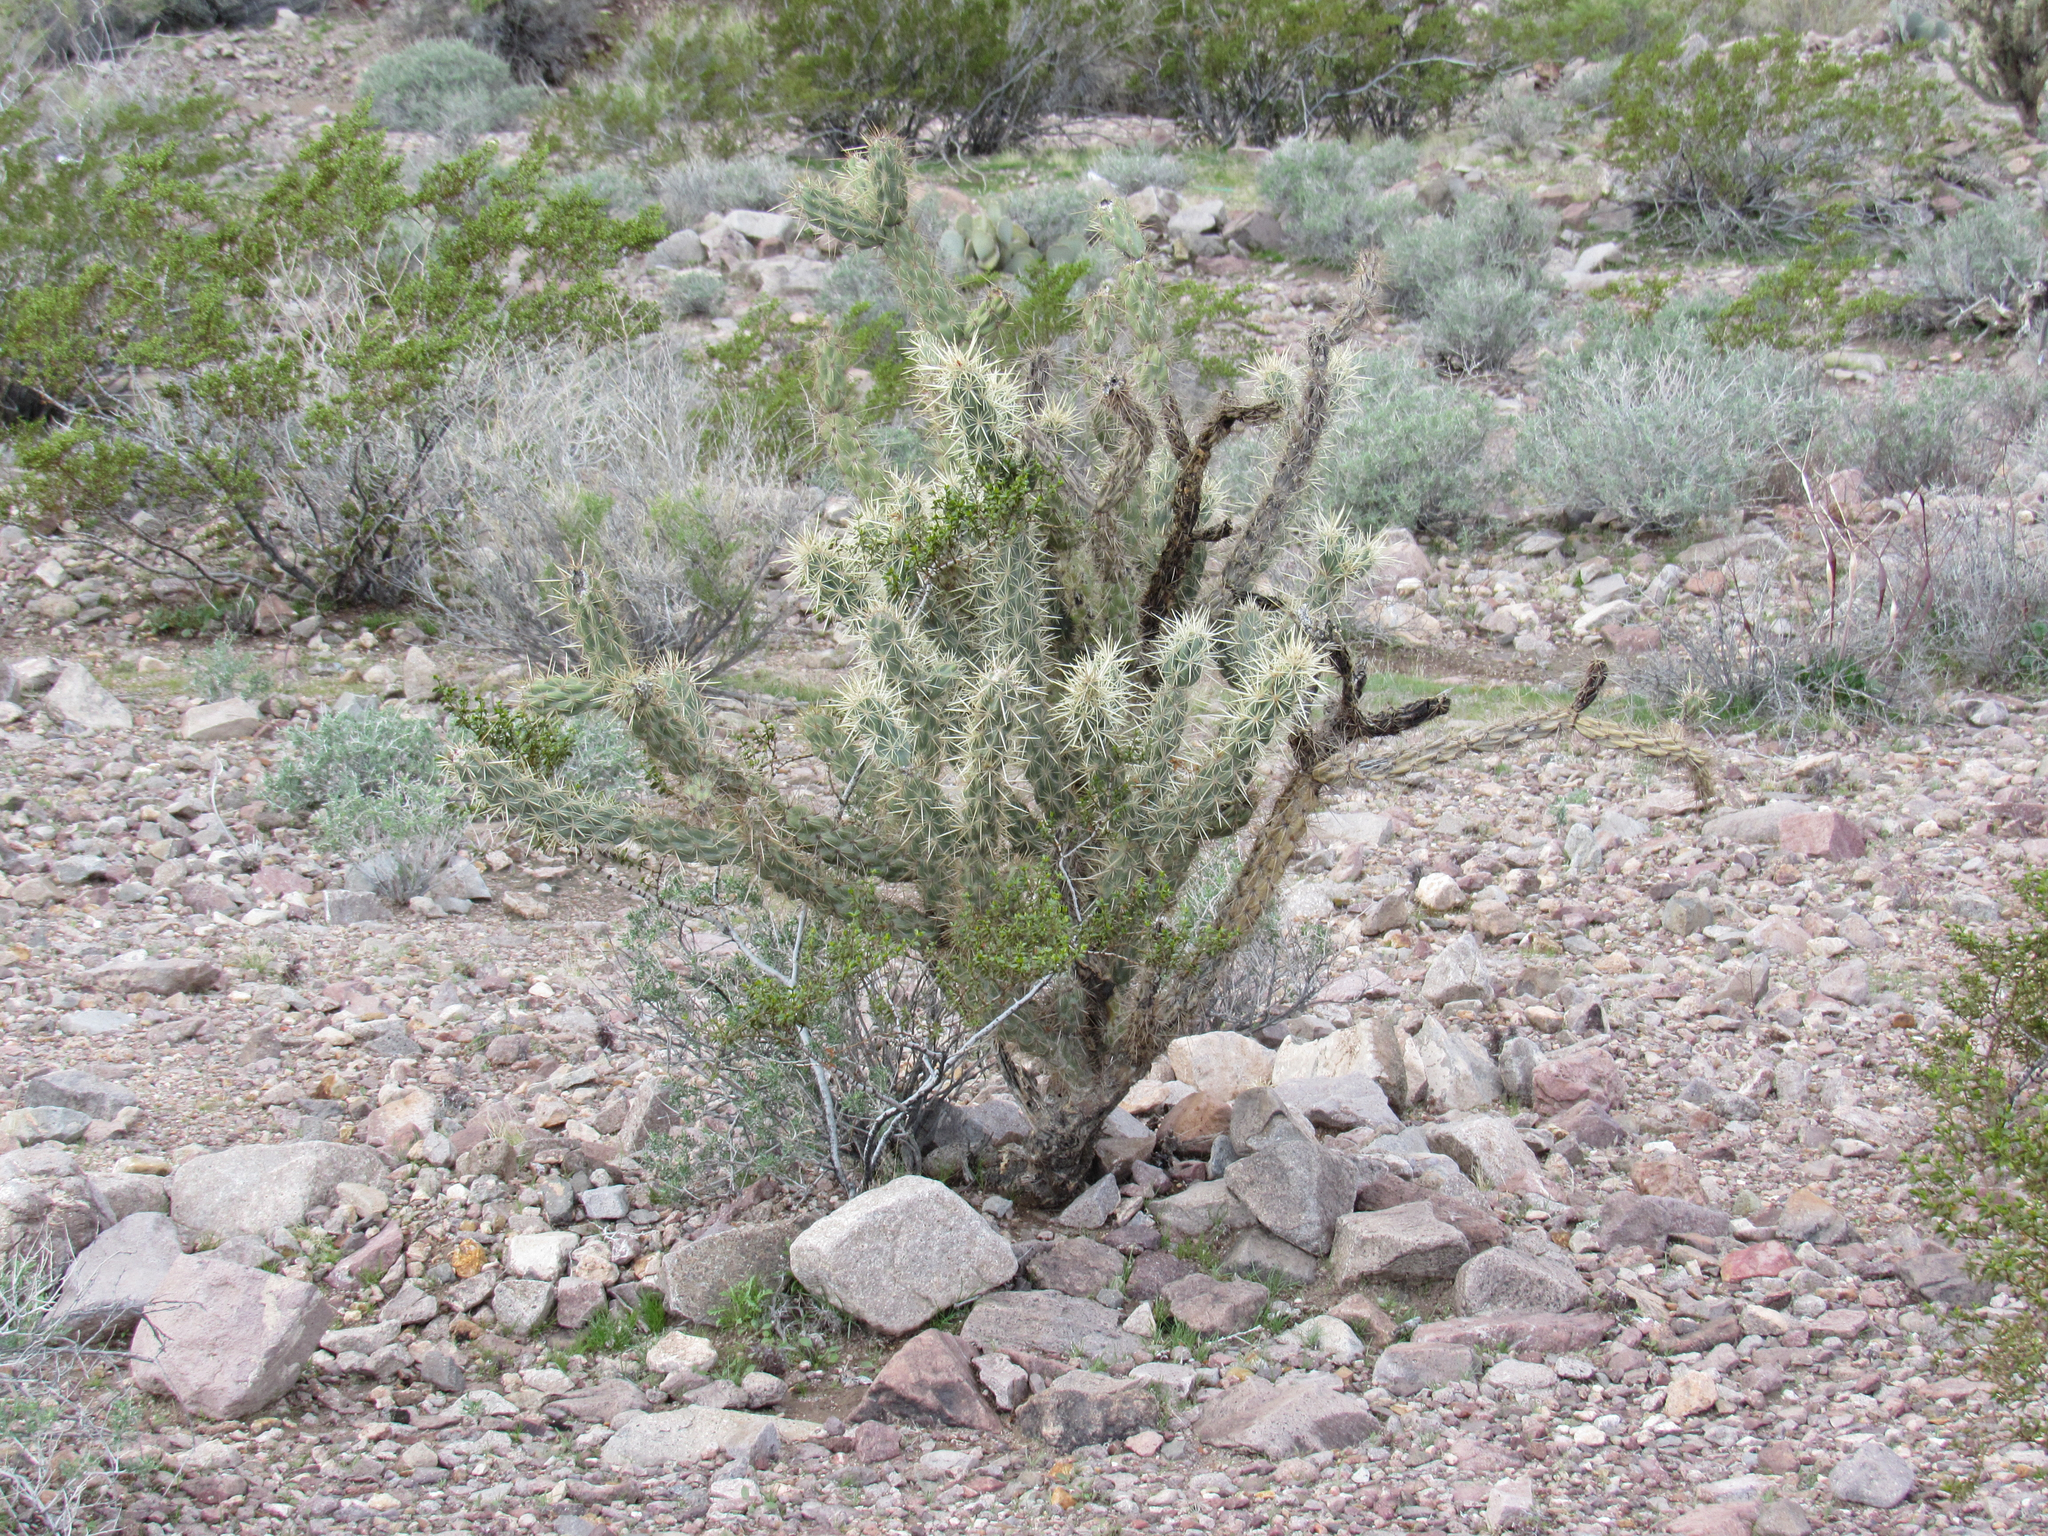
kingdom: Plantae
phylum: Tracheophyta
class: Magnoliopsida
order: Caryophyllales
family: Cactaceae
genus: Cylindropuntia
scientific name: Cylindropuntia acanthocarpa
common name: Buckhorn cholla
